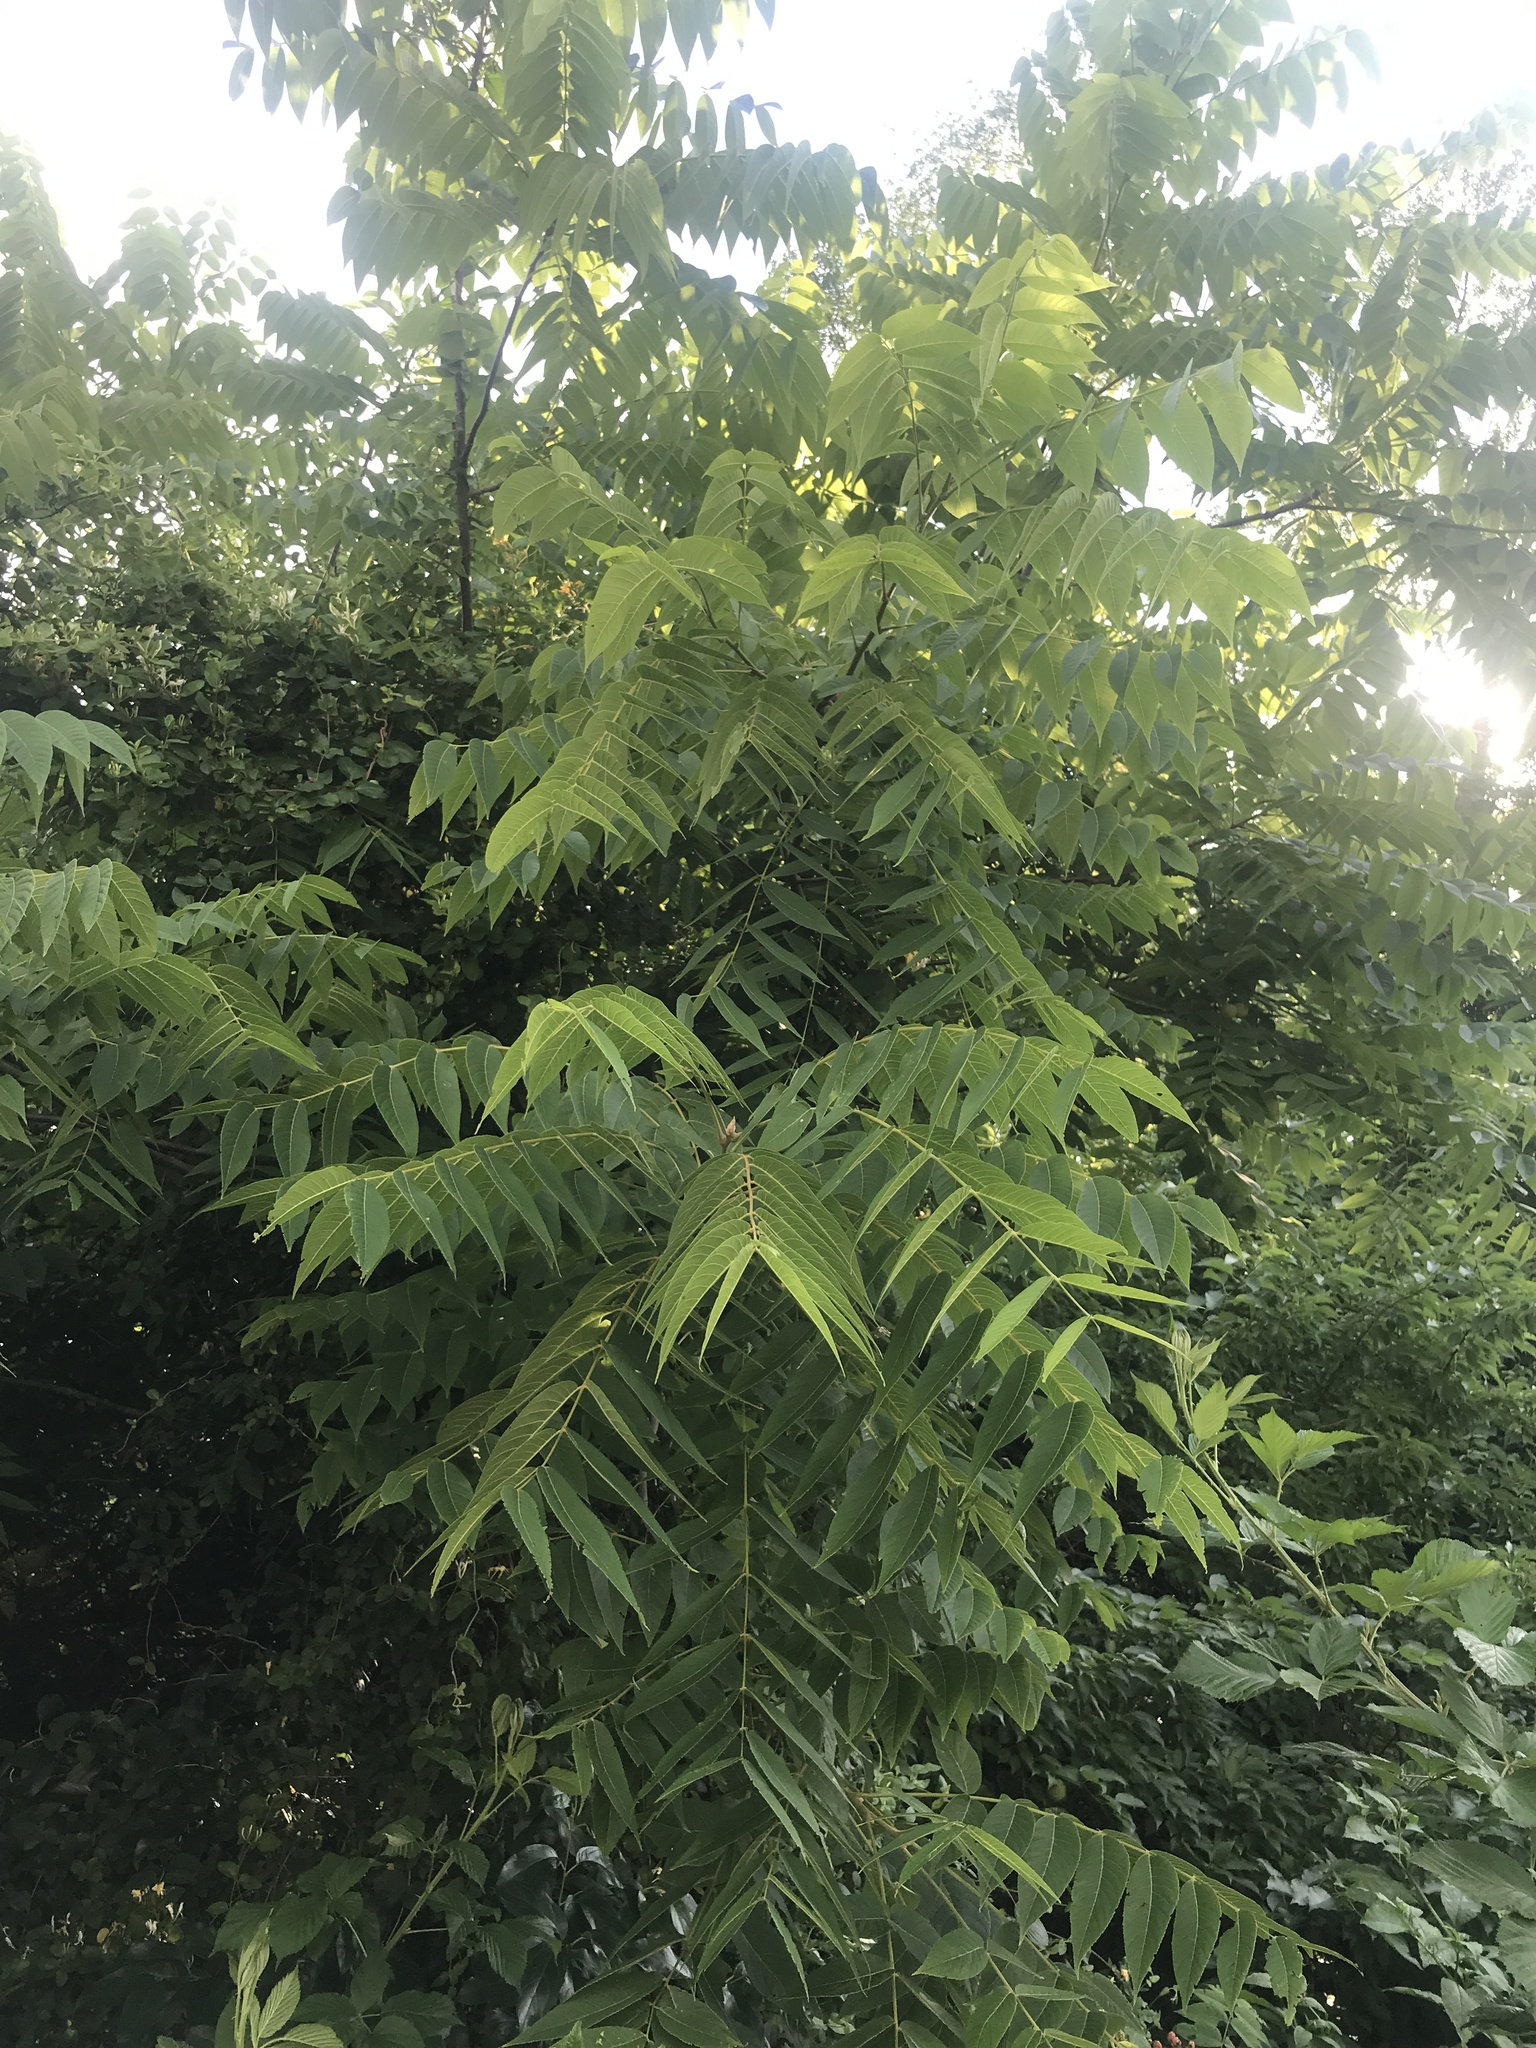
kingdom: Plantae
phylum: Tracheophyta
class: Magnoliopsida
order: Fagales
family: Juglandaceae
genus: Juglans
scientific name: Juglans nigra
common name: Black walnut
